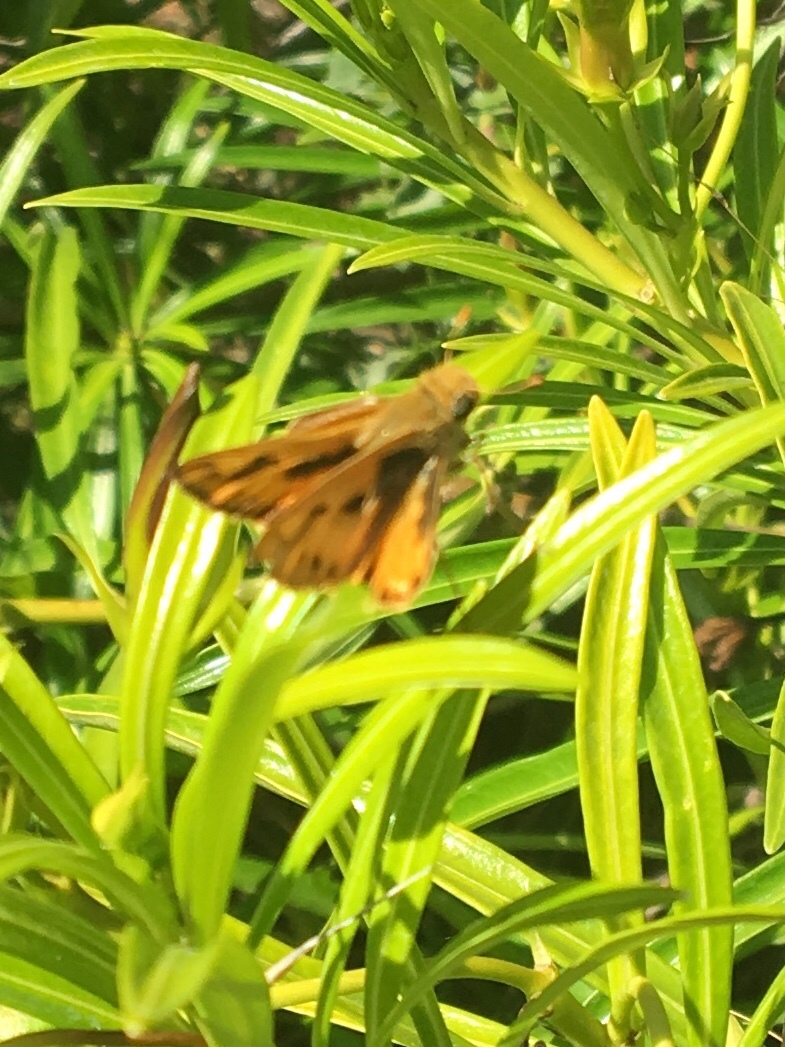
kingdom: Animalia
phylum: Arthropoda
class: Insecta
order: Lepidoptera
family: Hesperiidae
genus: Hylephila
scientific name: Hylephila phyleus
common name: Fiery skipper
